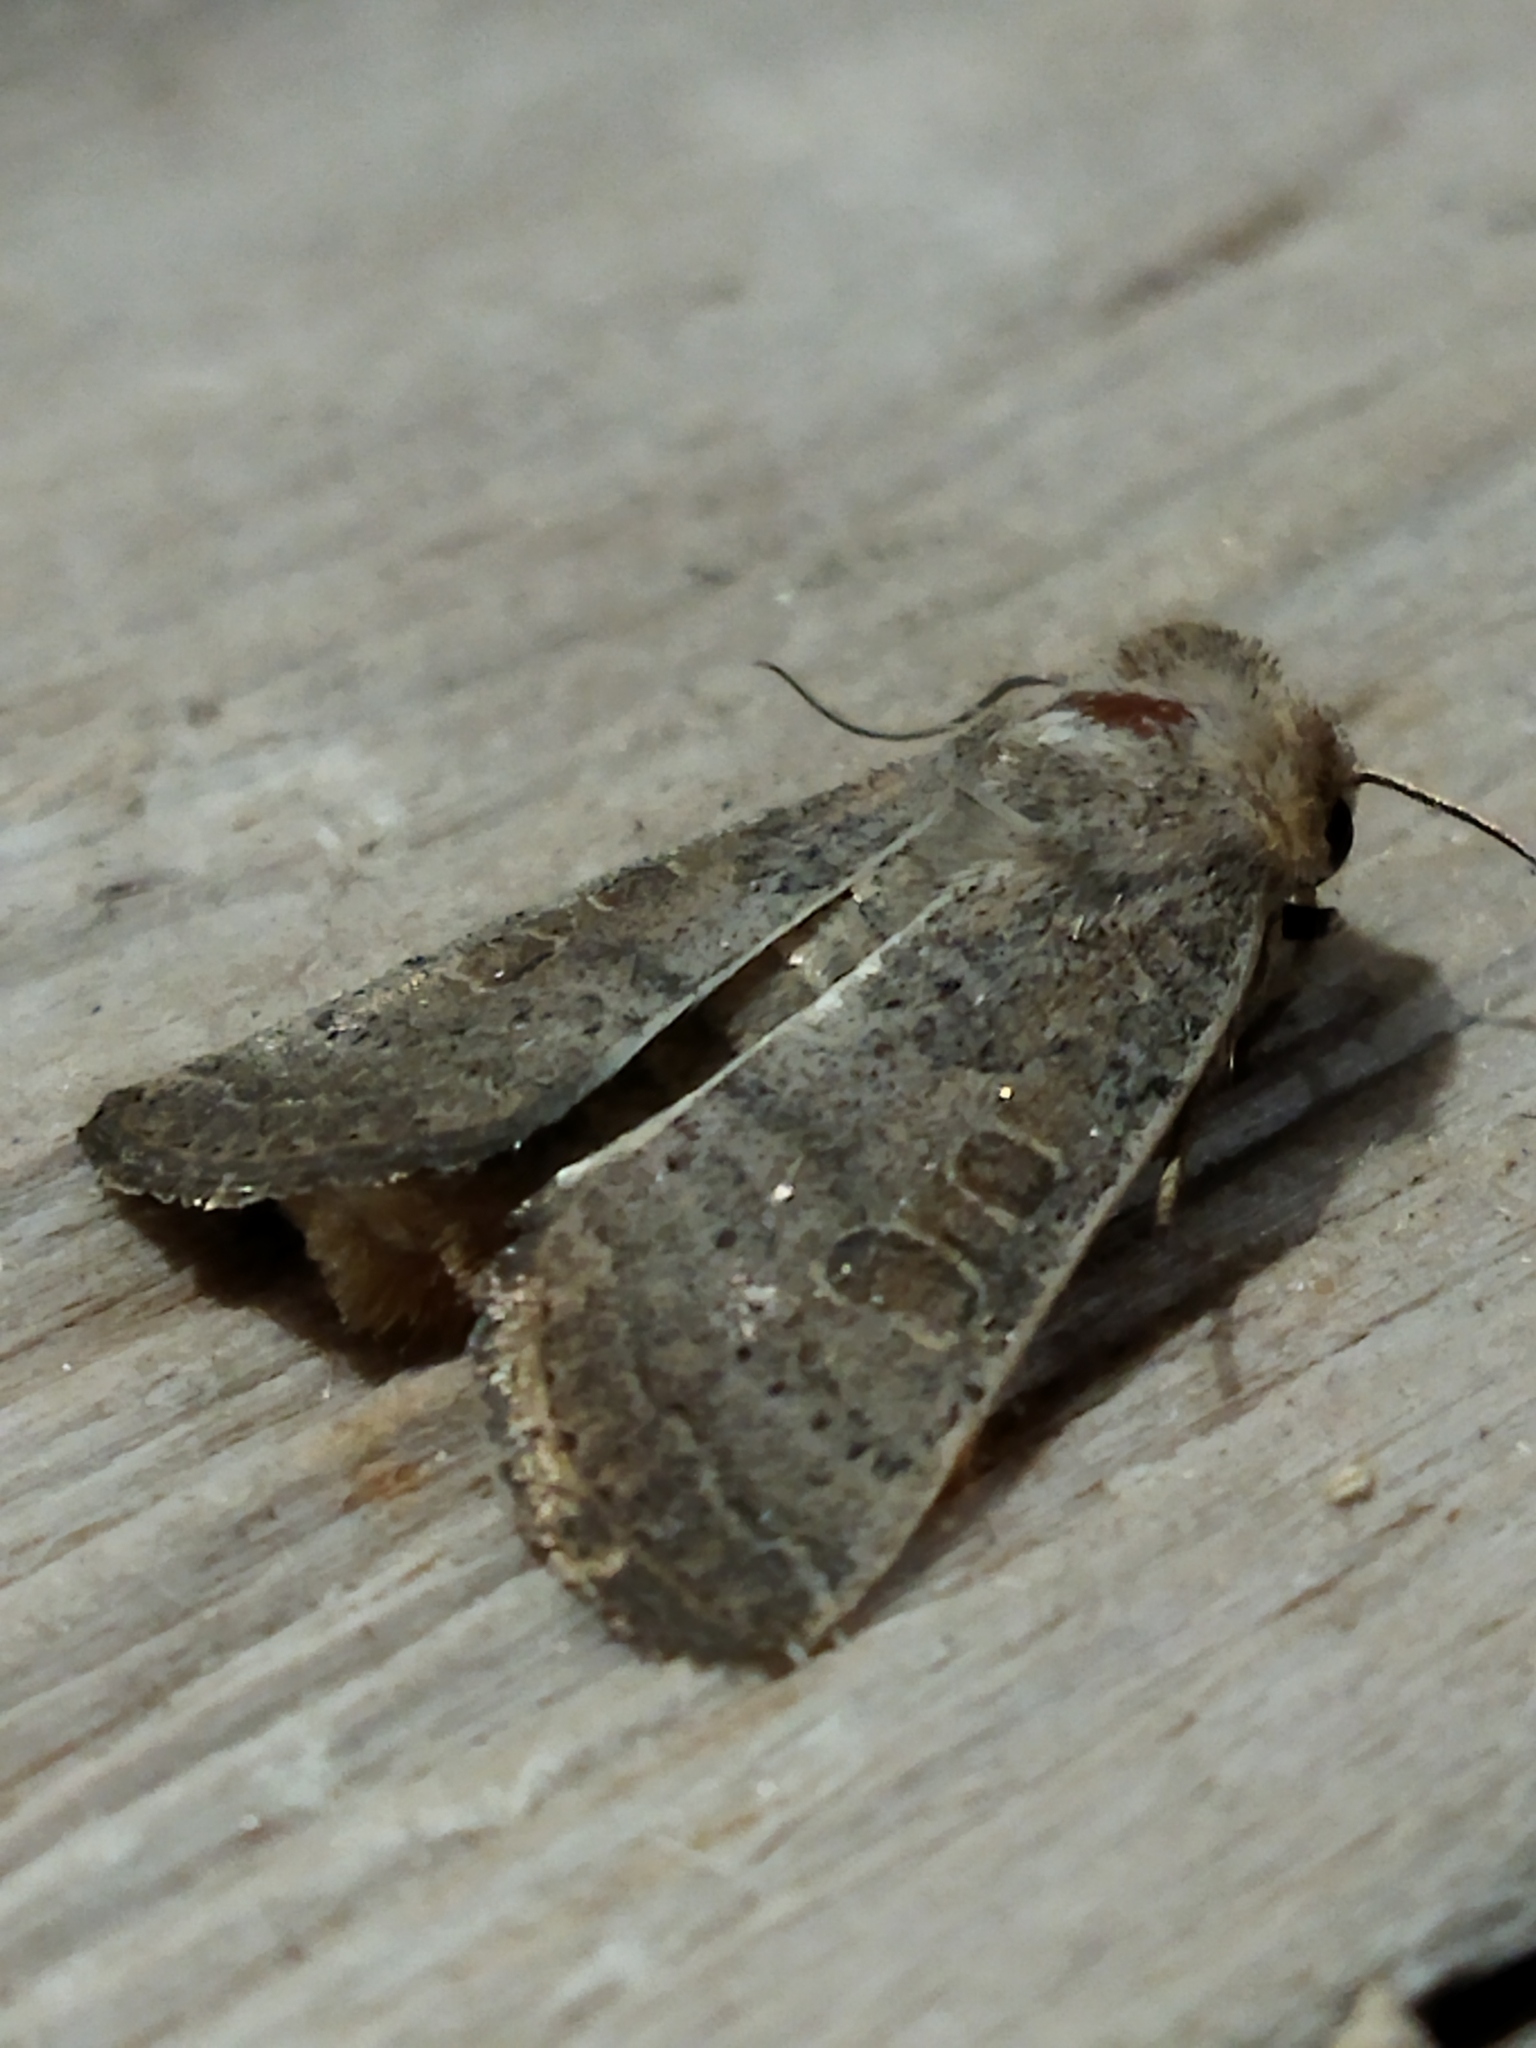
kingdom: Animalia
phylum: Arthropoda
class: Insecta
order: Lepidoptera
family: Noctuidae
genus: Hoplodrina
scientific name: Hoplodrina ambigua
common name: Vine's rustic
